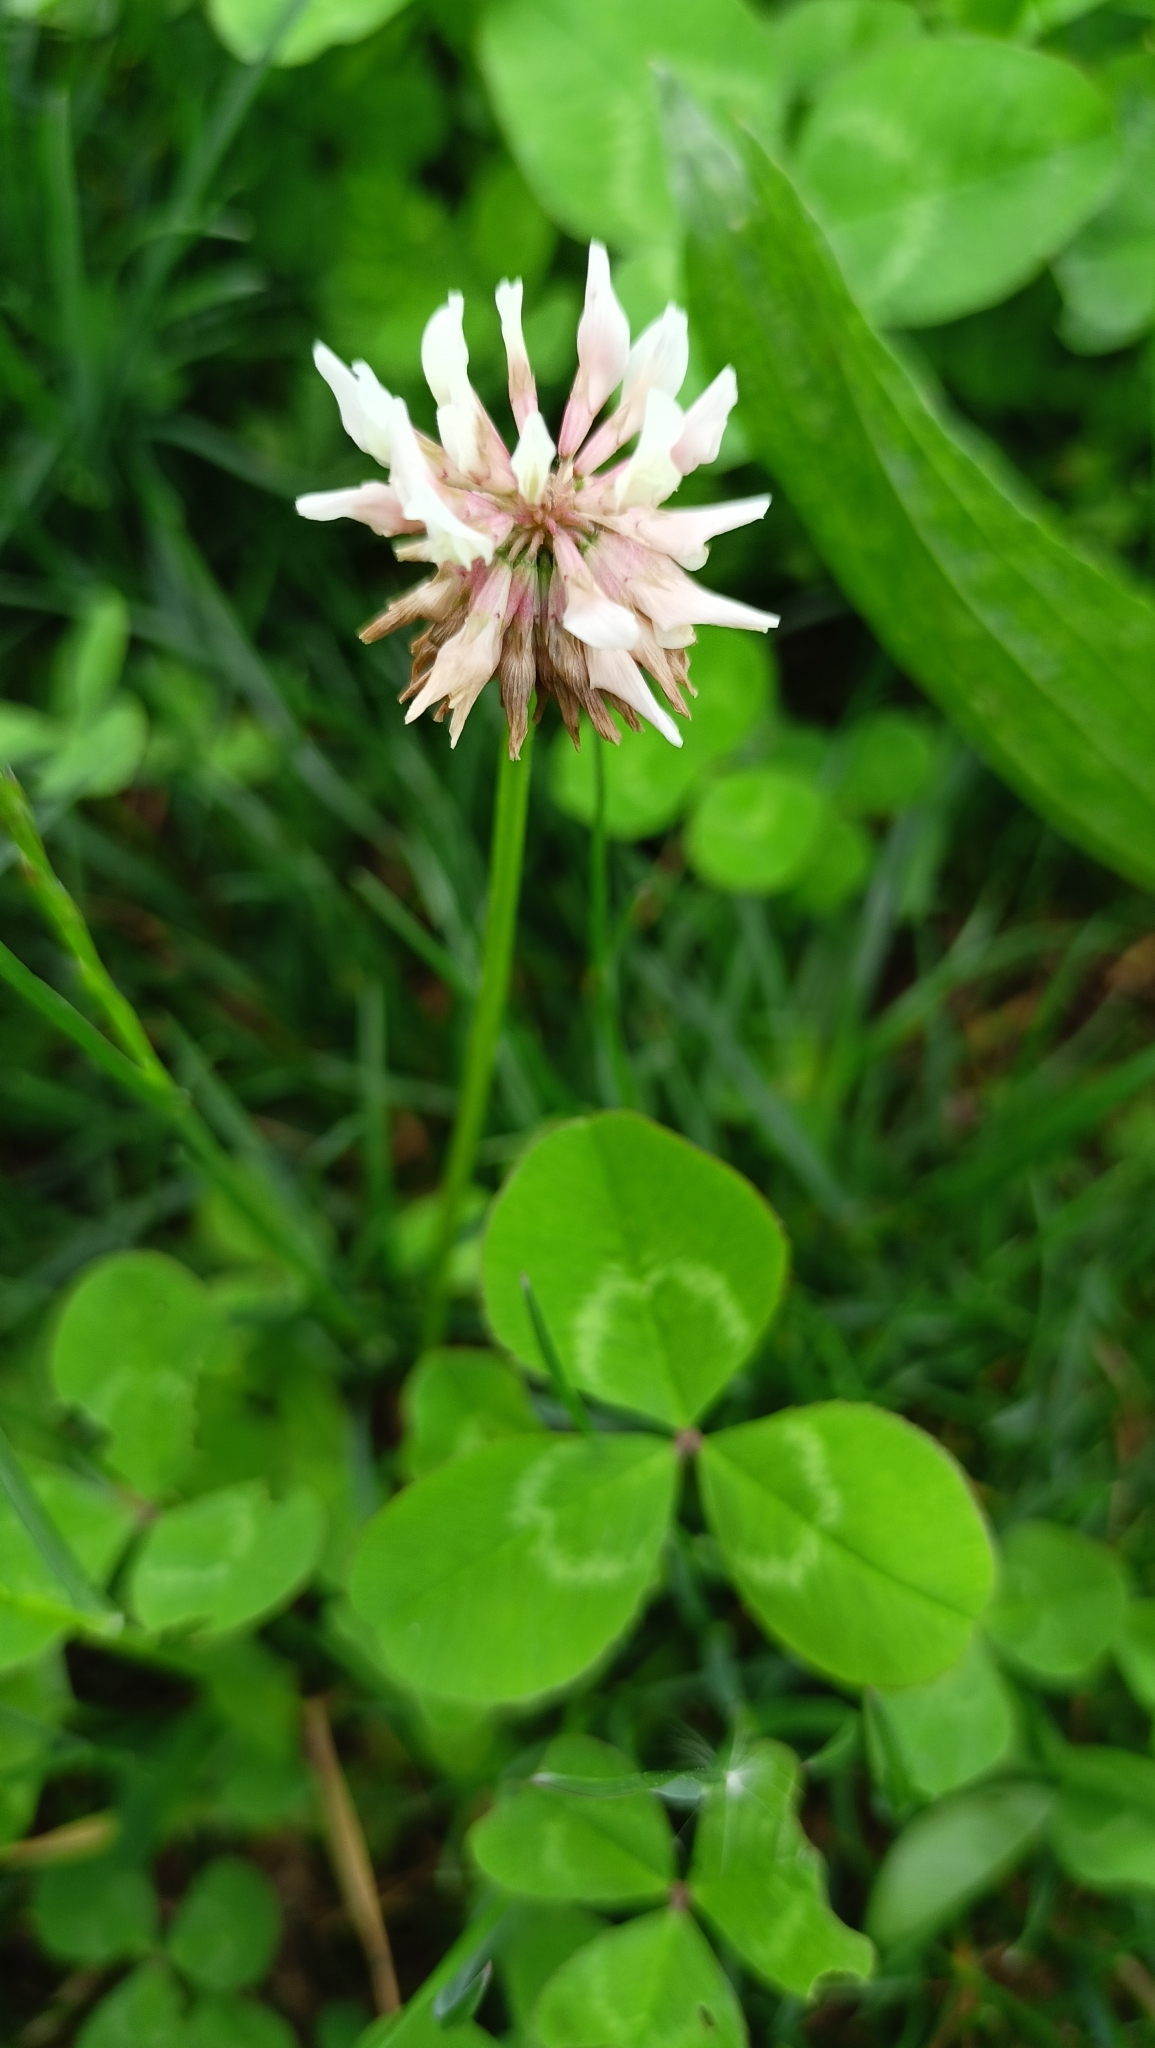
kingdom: Plantae
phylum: Tracheophyta
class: Magnoliopsida
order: Fabales
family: Fabaceae
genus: Trifolium
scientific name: Trifolium repens
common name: White clover
